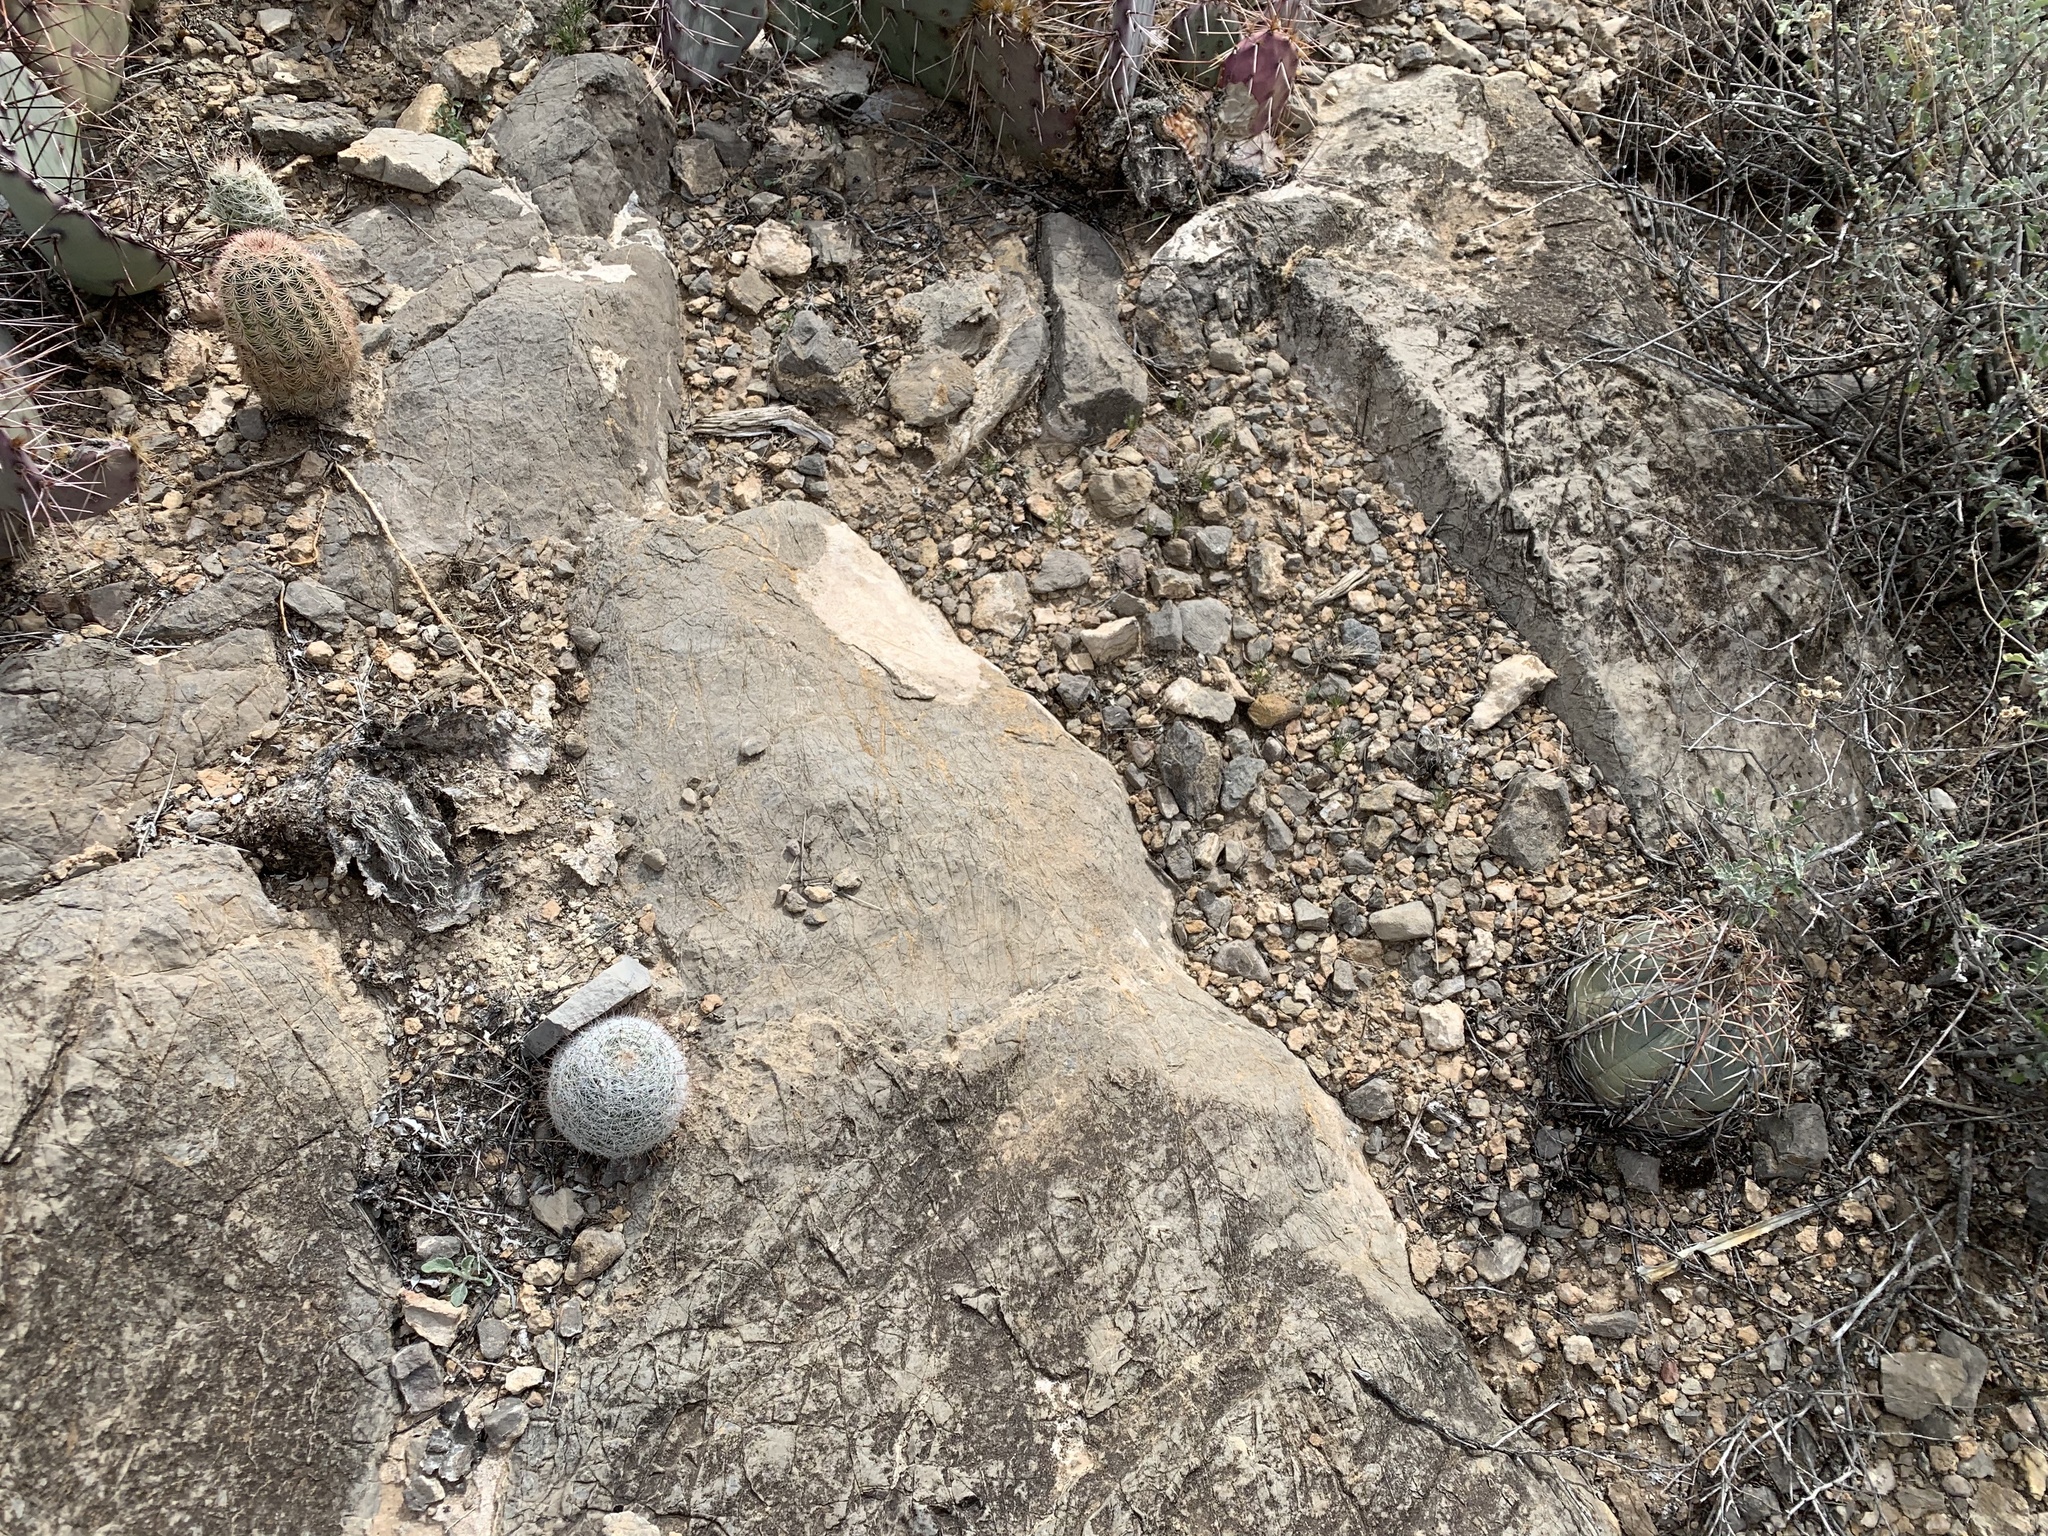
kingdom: Plantae
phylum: Tracheophyta
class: Magnoliopsida
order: Caryophyllales
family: Cactaceae
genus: Echinocactus
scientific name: Echinocactus horizonthalonius
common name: Devilshead
